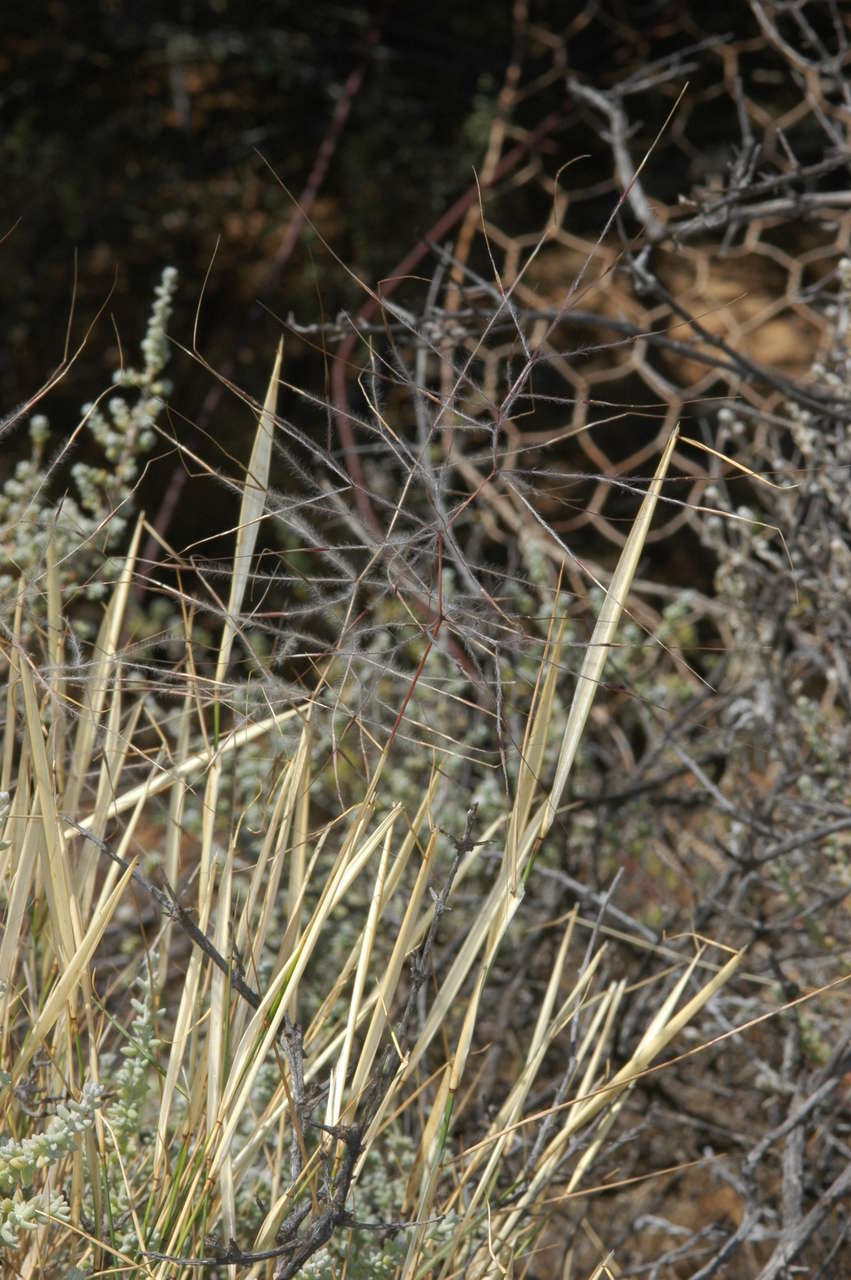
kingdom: Plantae
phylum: Tracheophyta
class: Liliopsida
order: Poales
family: Poaceae
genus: Austrostipa
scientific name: Austrostipa elegantissima
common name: Feather spear grass
